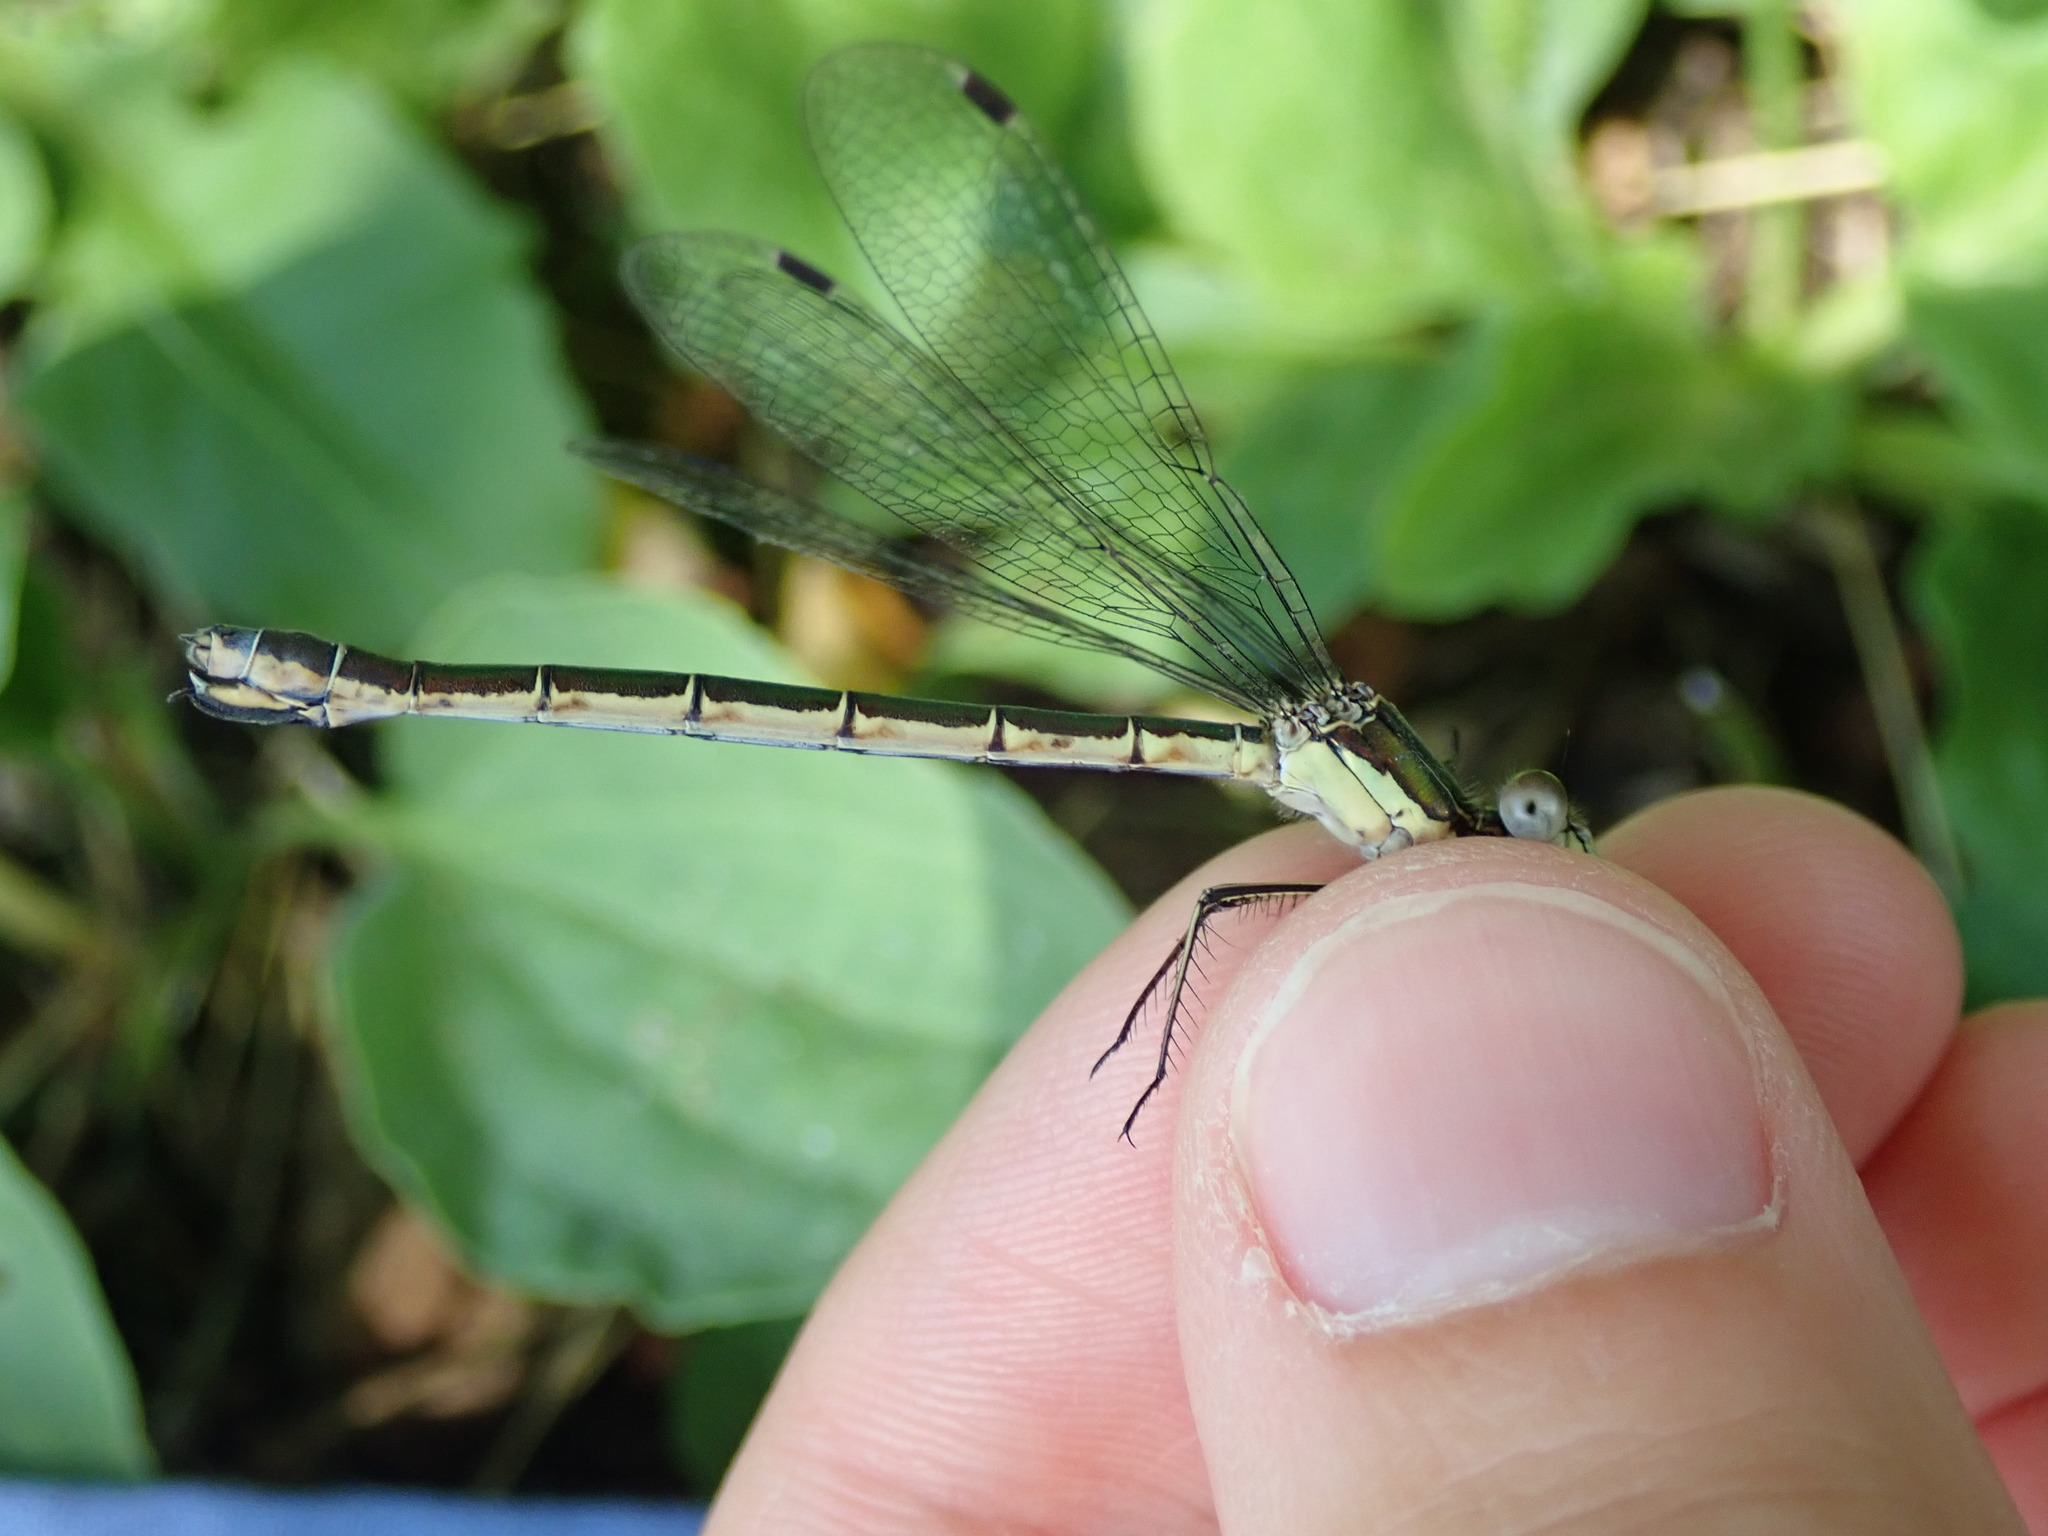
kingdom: Animalia
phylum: Arthropoda
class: Insecta
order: Odonata
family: Lestidae
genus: Lestes
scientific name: Lestes dryas
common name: Scarce emerald damselfly
